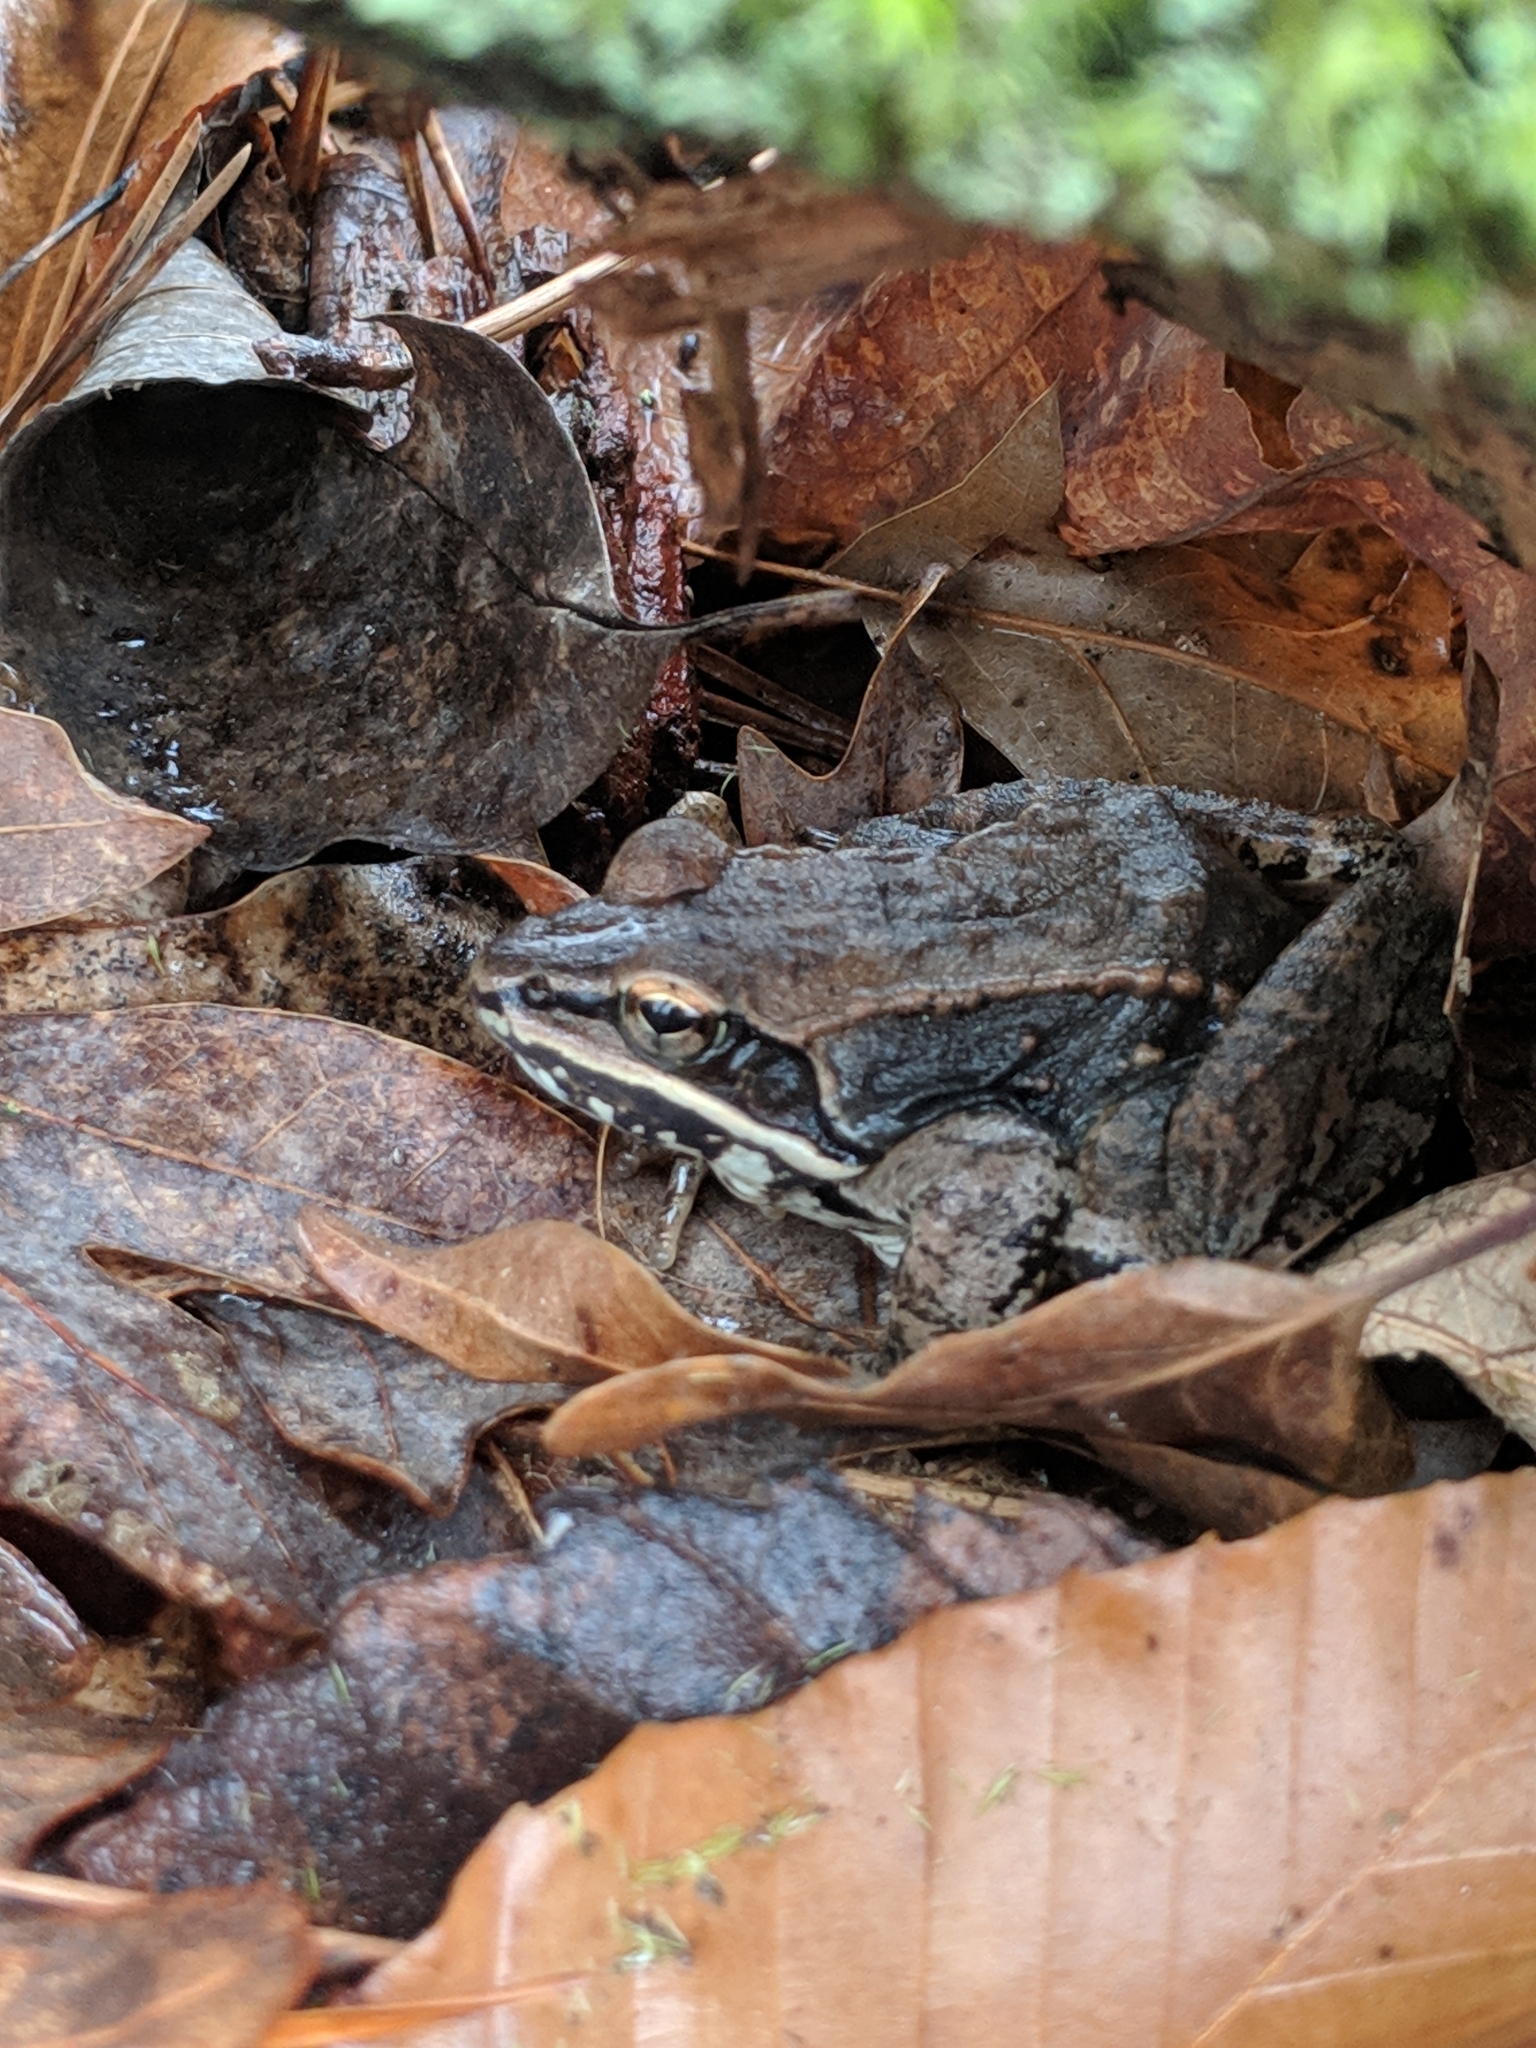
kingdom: Animalia
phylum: Chordata
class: Amphibia
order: Anura
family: Ranidae
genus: Lithobates
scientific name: Lithobates sylvaticus
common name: Wood frog
